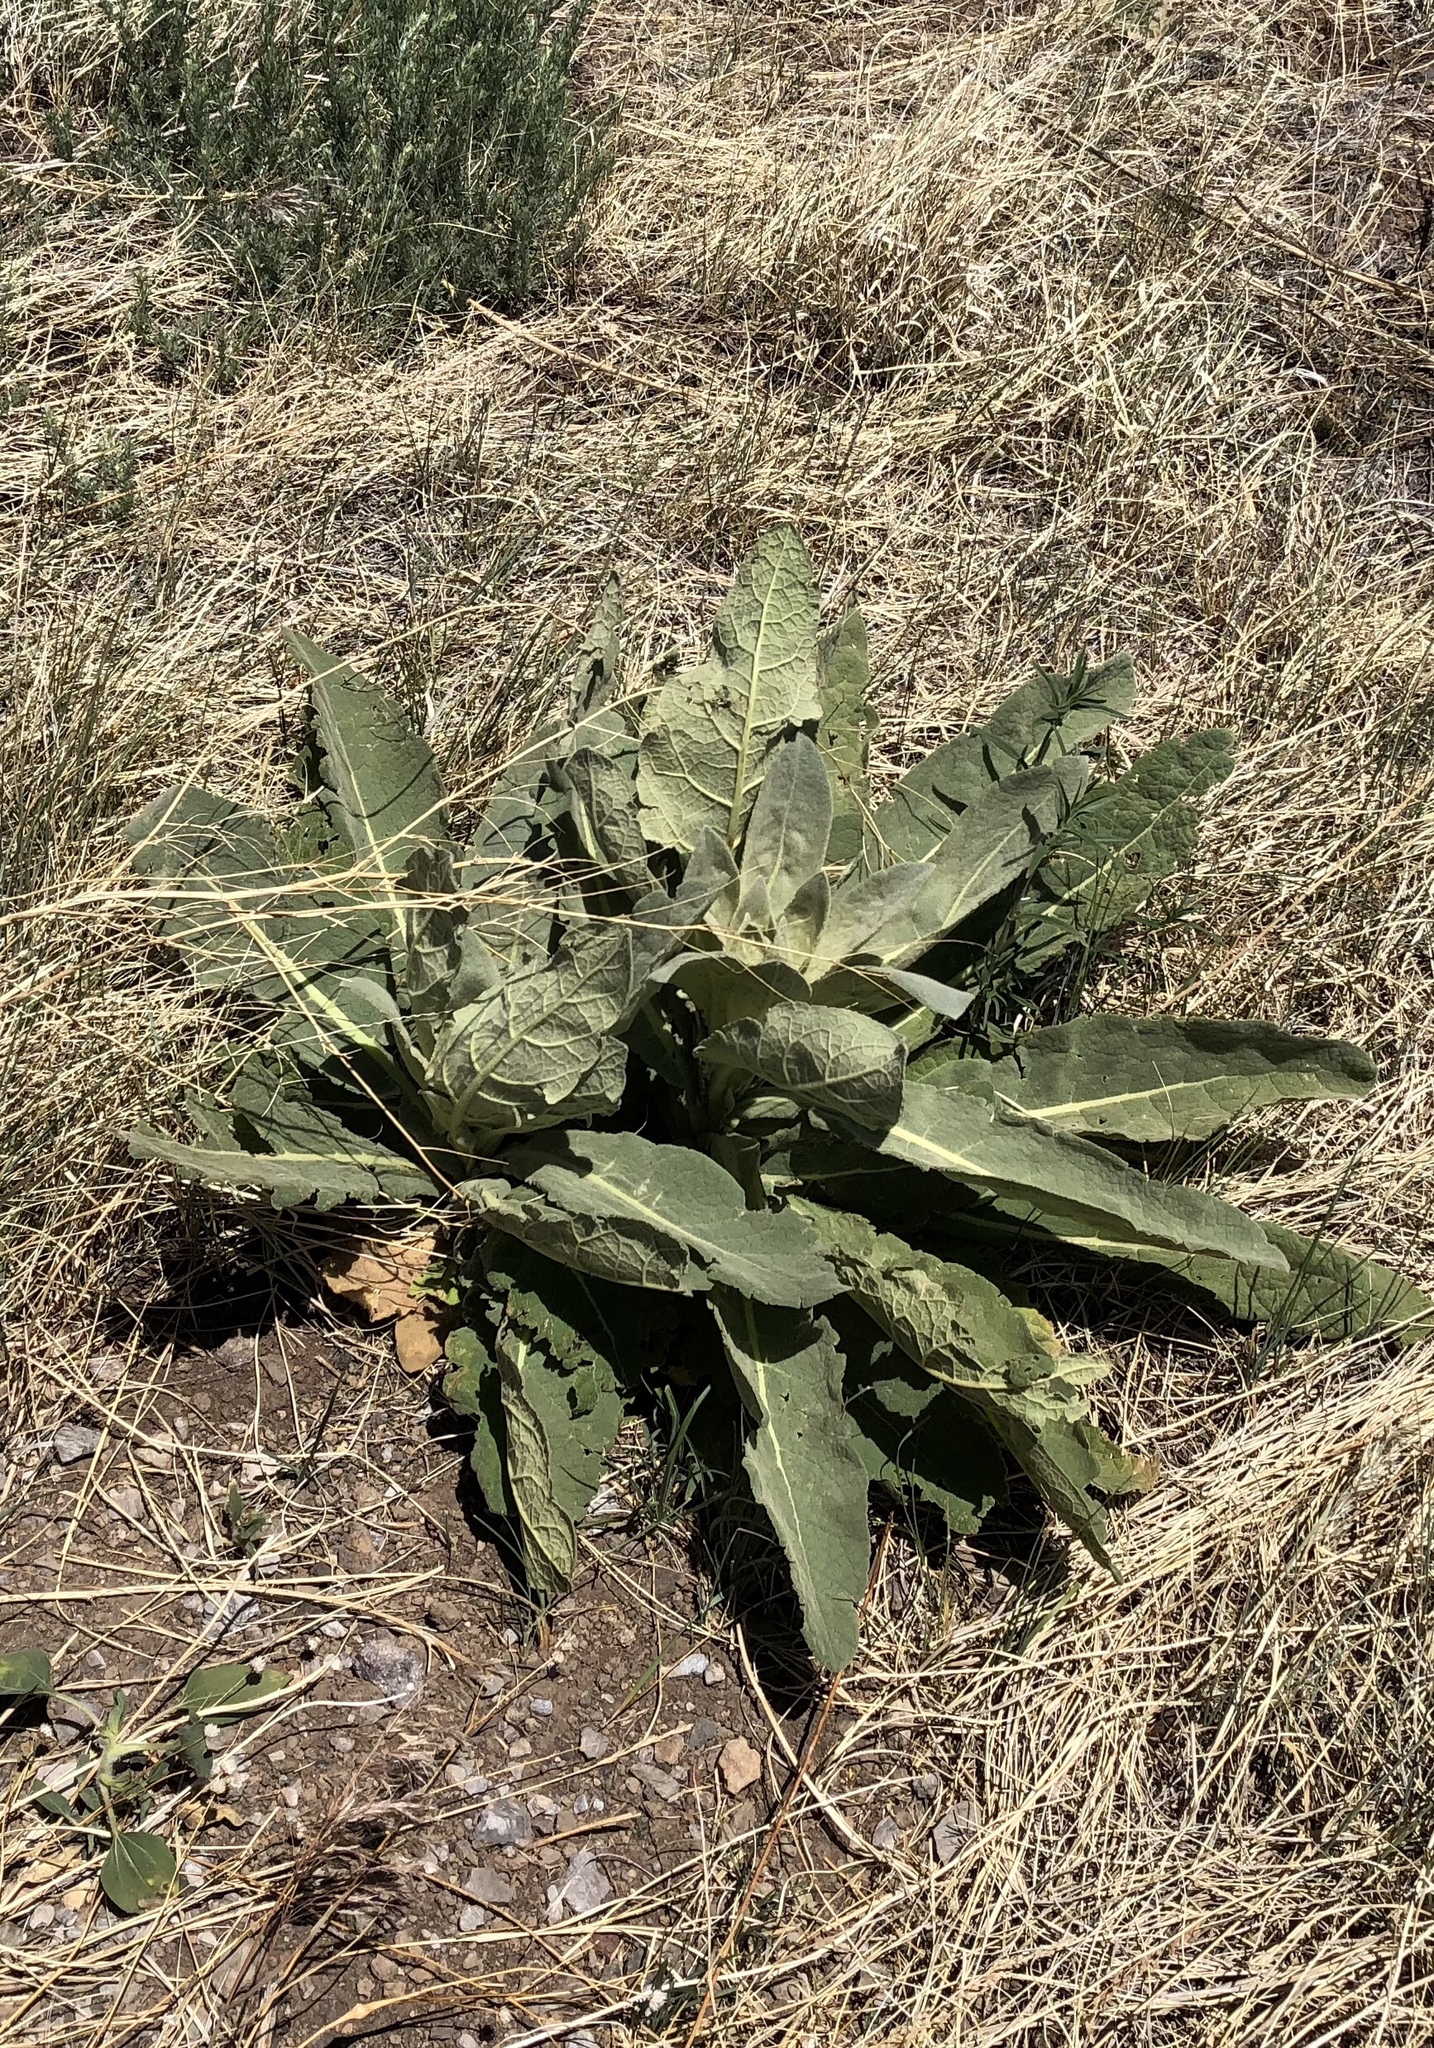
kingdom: Plantae
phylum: Tracheophyta
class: Magnoliopsida
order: Lamiales
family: Scrophulariaceae
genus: Verbascum
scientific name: Verbascum thapsus
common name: Common mullein
